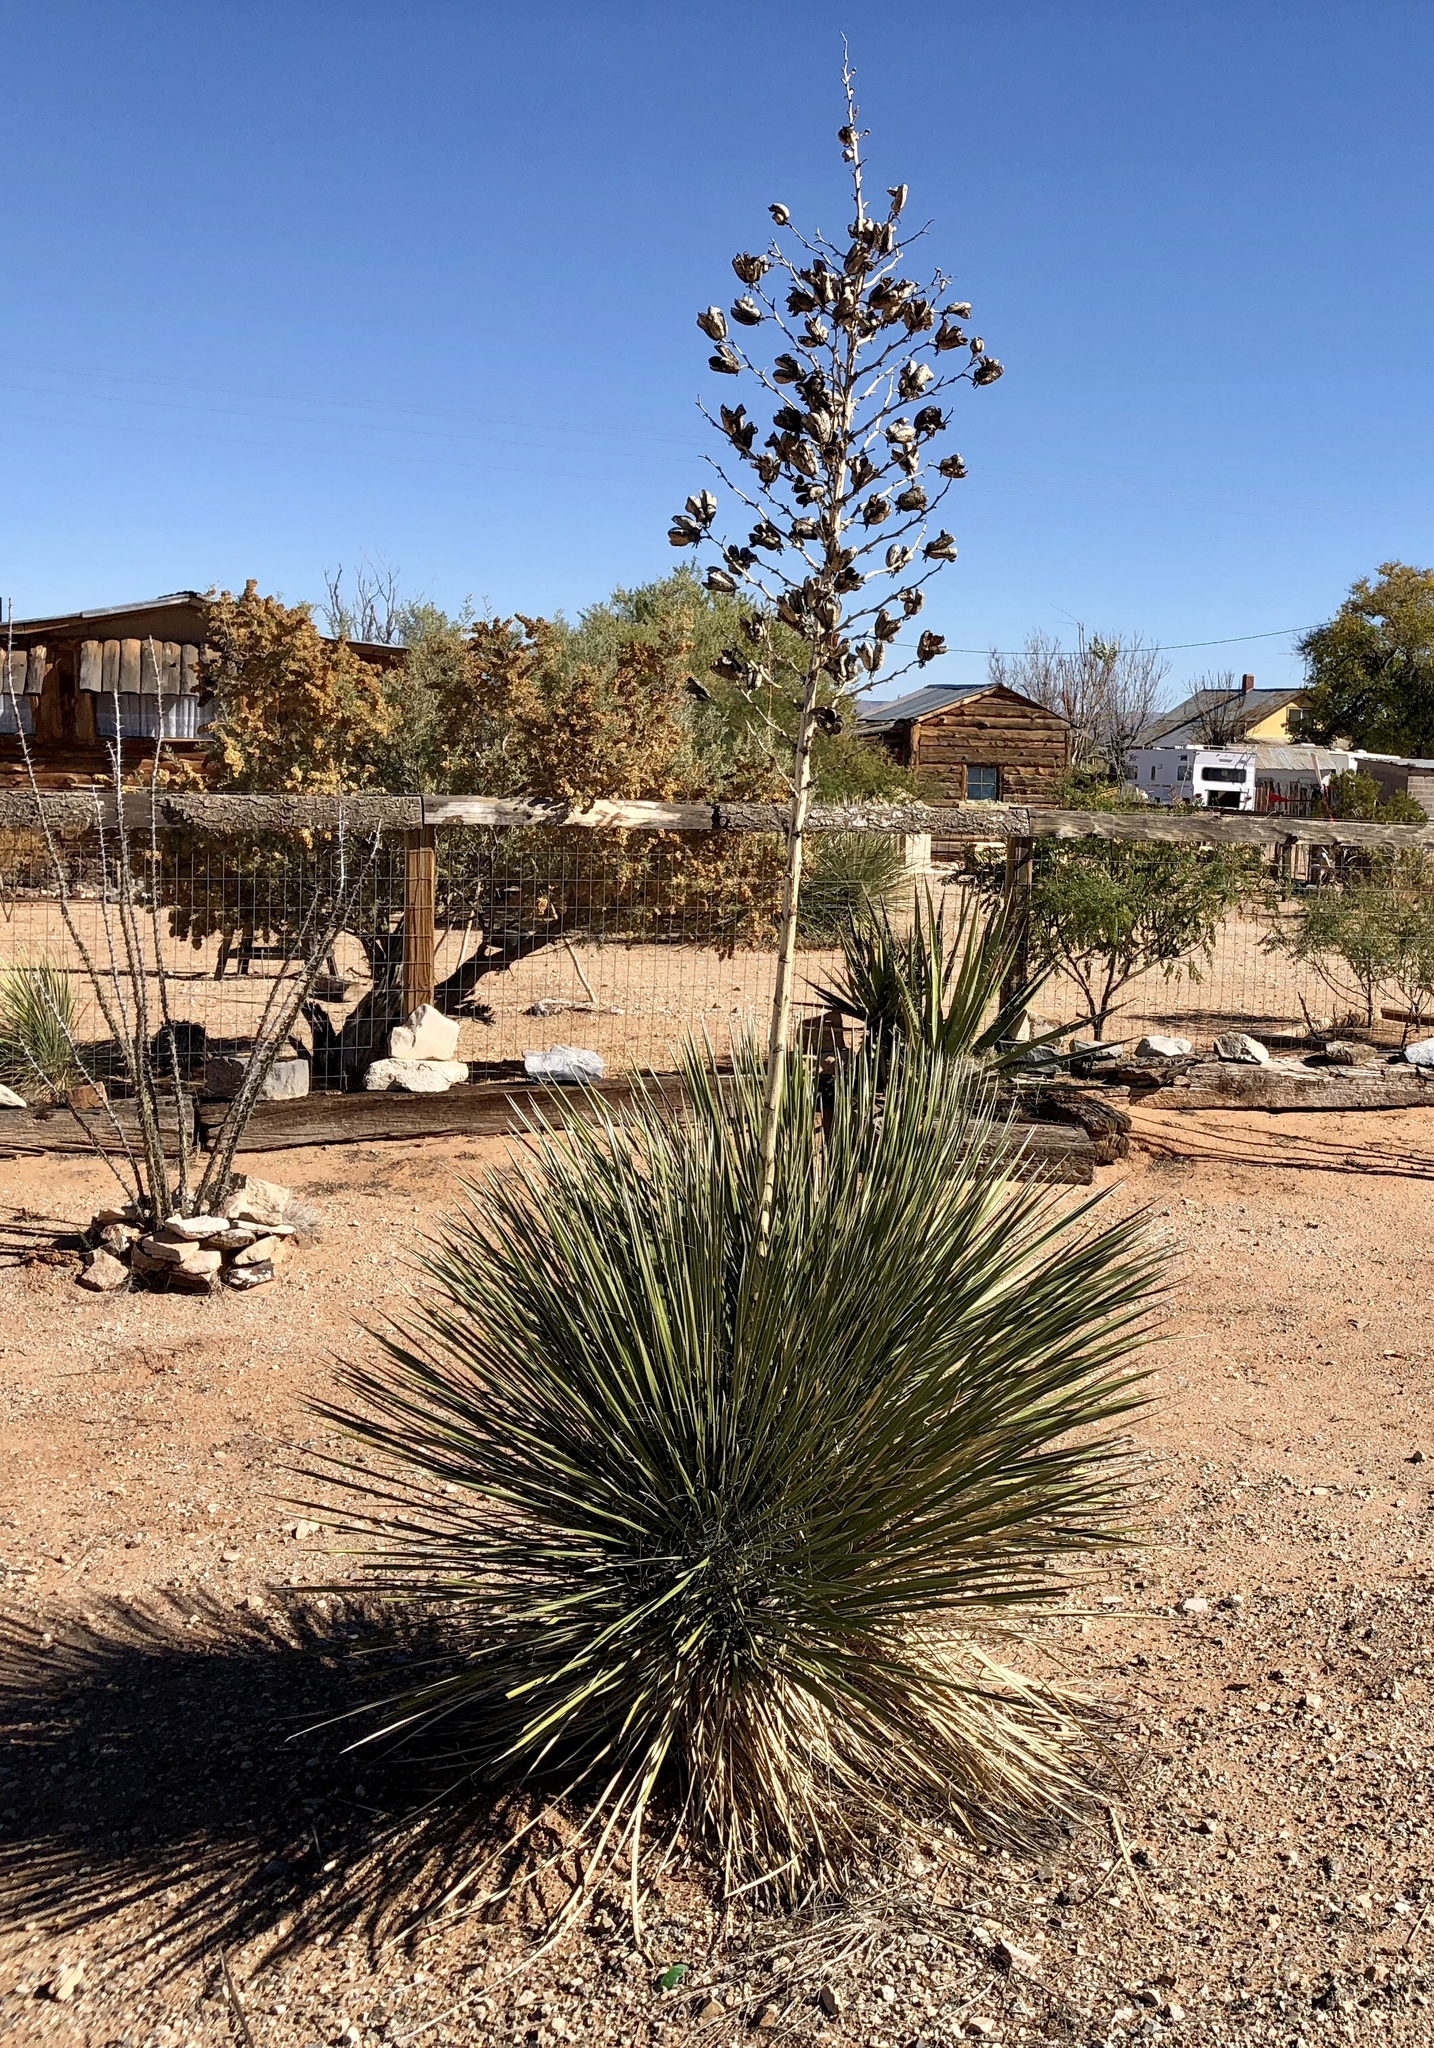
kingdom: Plantae
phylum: Tracheophyta
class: Liliopsida
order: Asparagales
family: Asparagaceae
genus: Yucca
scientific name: Yucca elata
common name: Palmella
